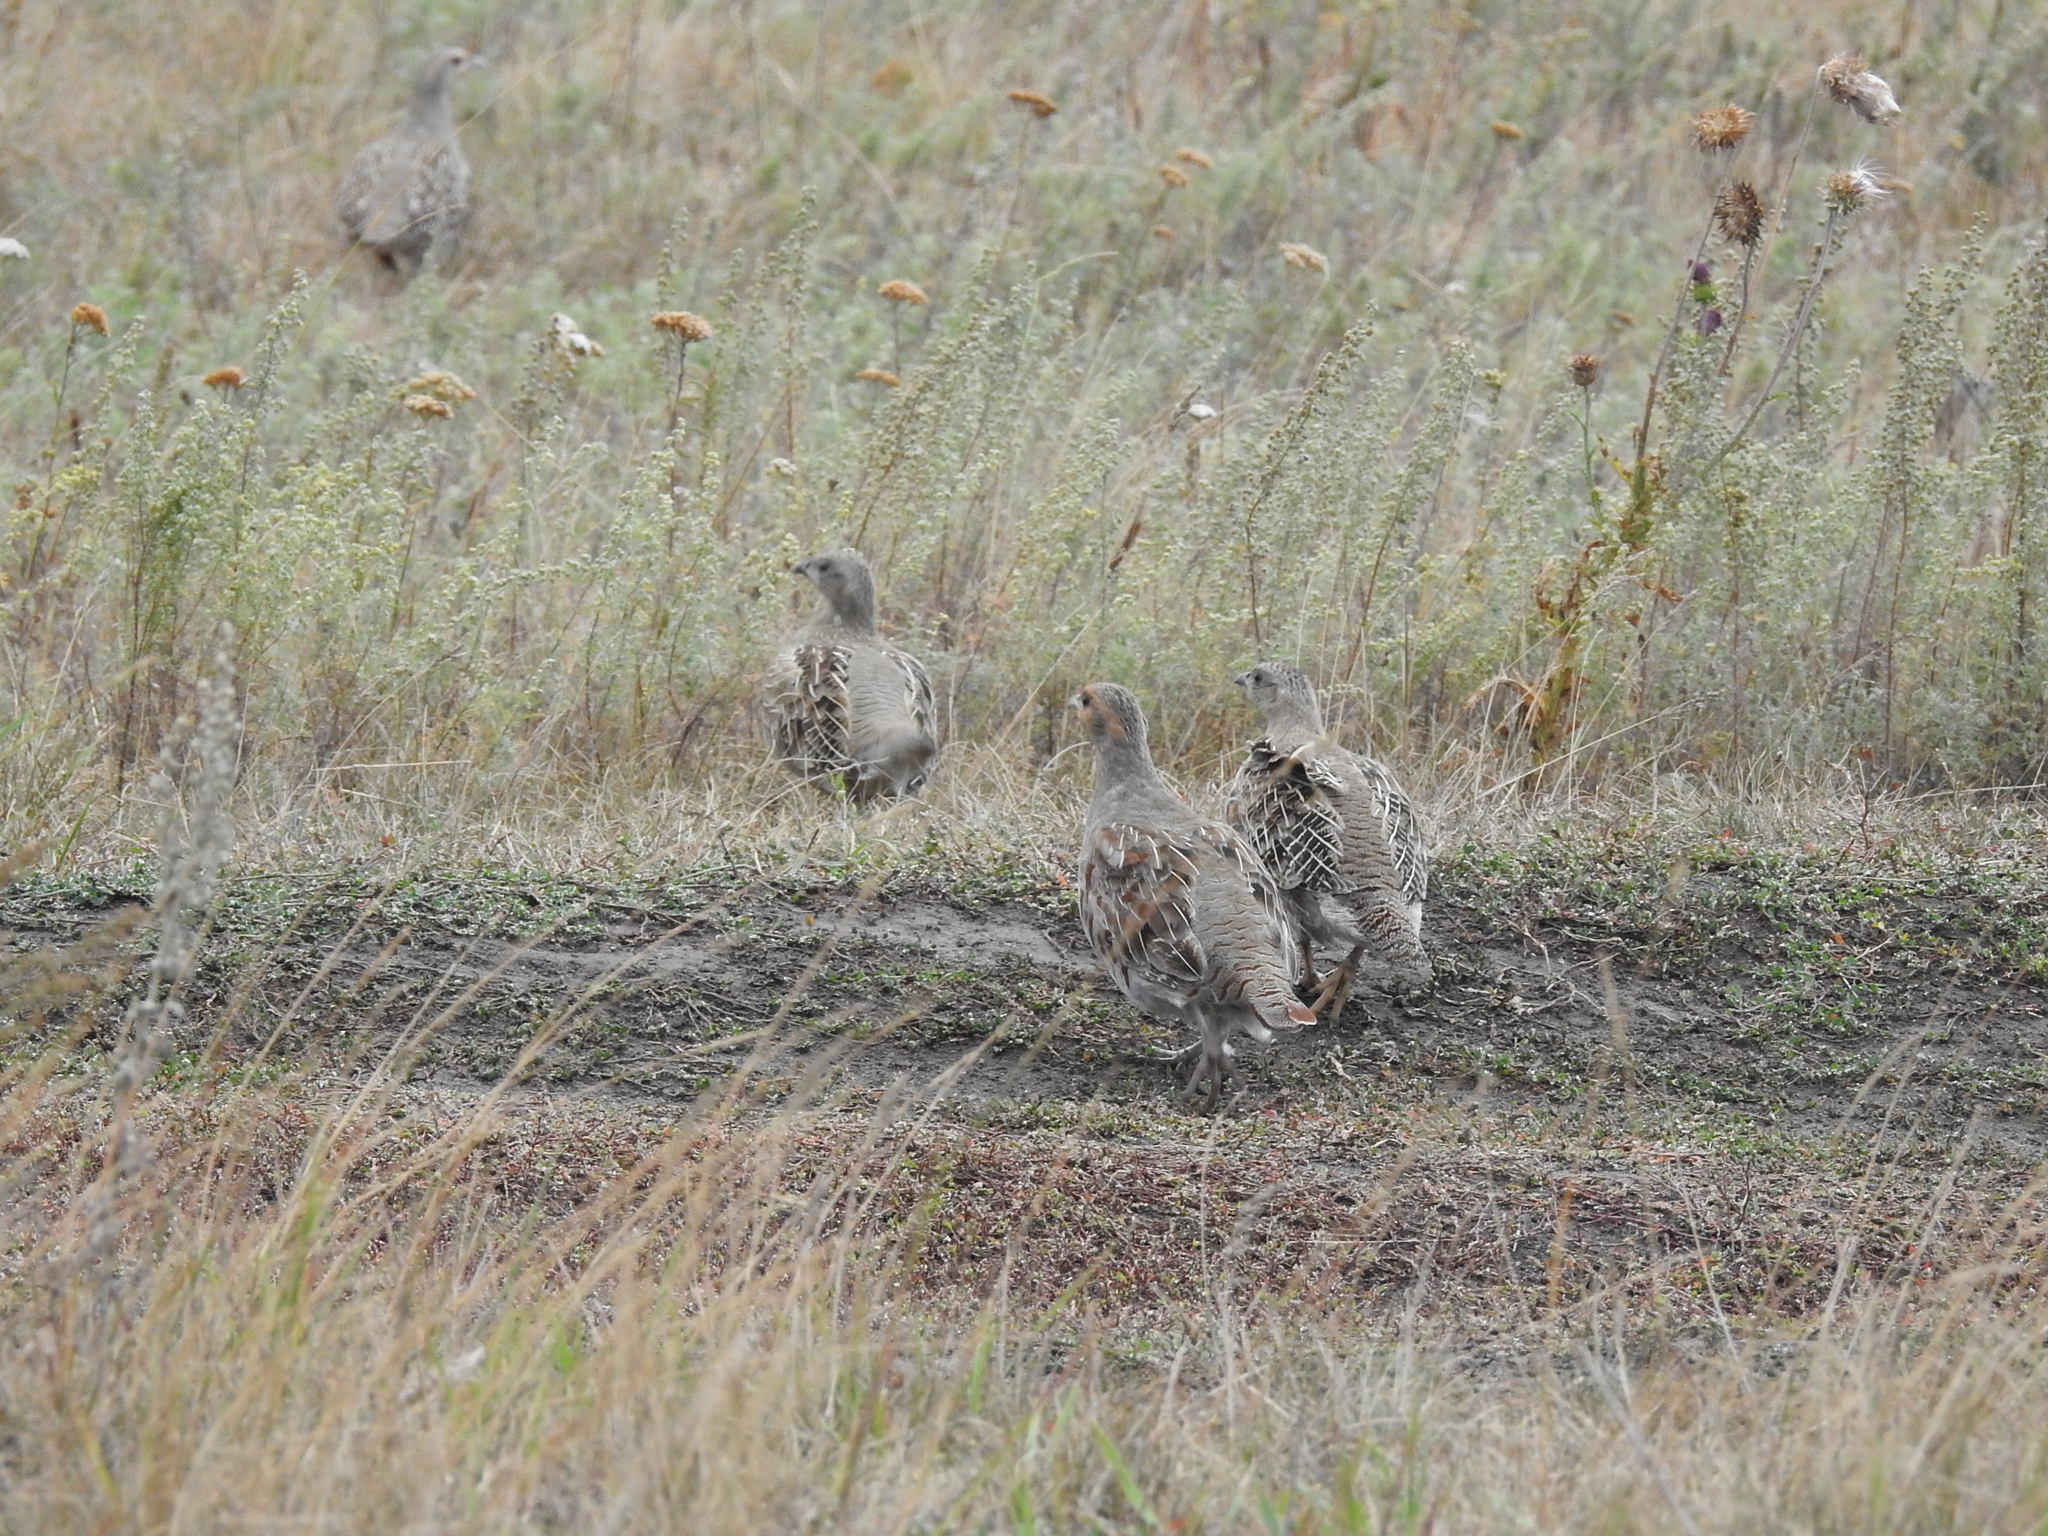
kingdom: Animalia
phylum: Chordata
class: Aves
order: Galliformes
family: Phasianidae
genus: Perdix
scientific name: Perdix perdix
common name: Grey partridge
